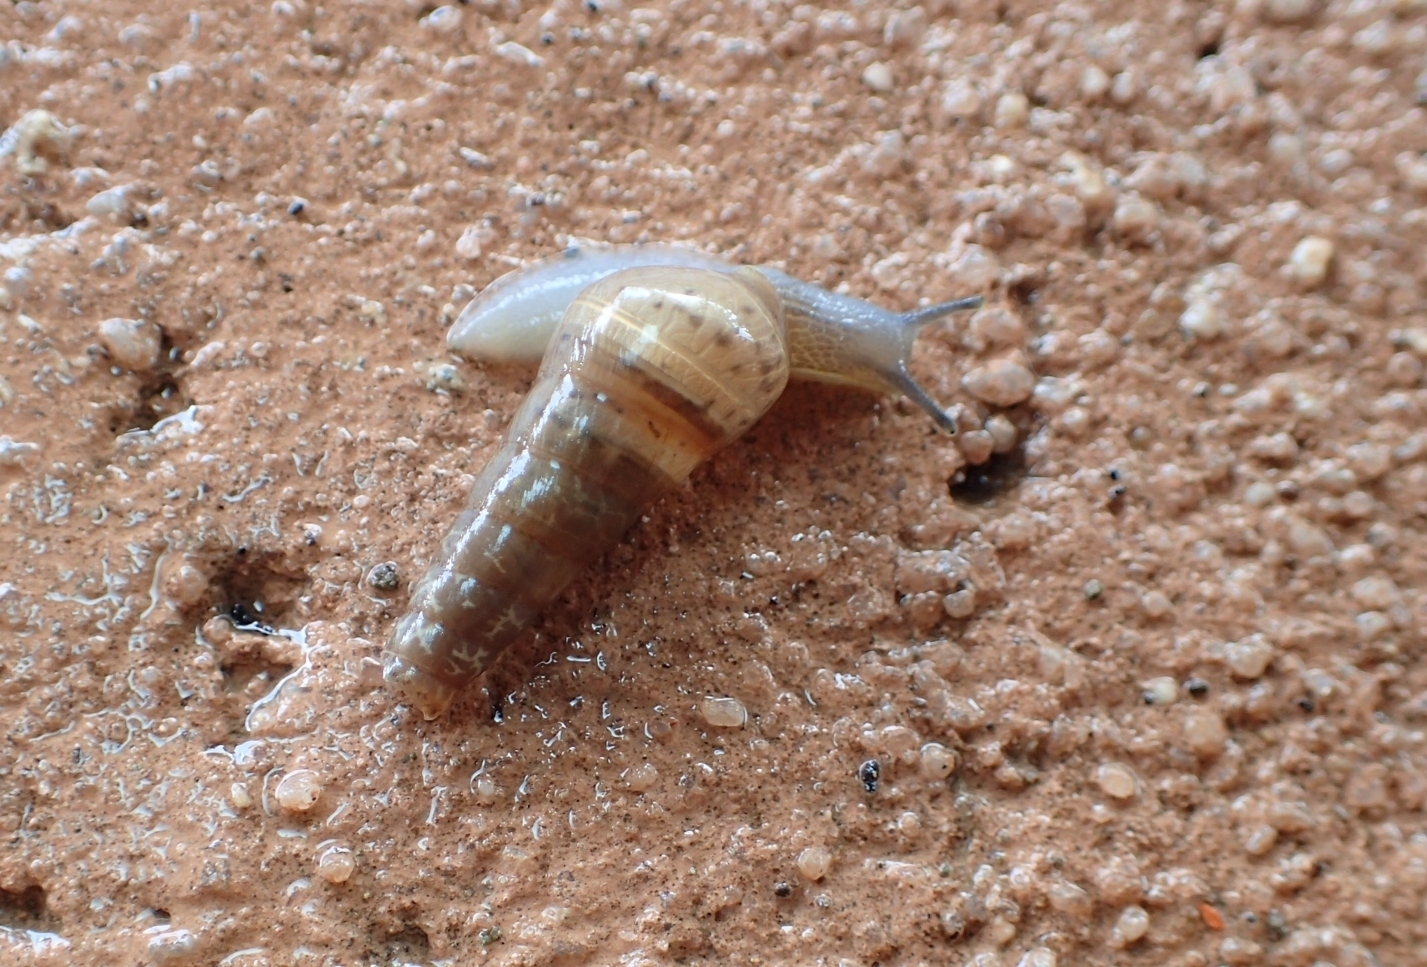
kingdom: Animalia
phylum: Mollusca
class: Gastropoda
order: Stylommatophora
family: Achatinidae
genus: Rumina
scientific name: Rumina decollata
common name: Decollate snail
